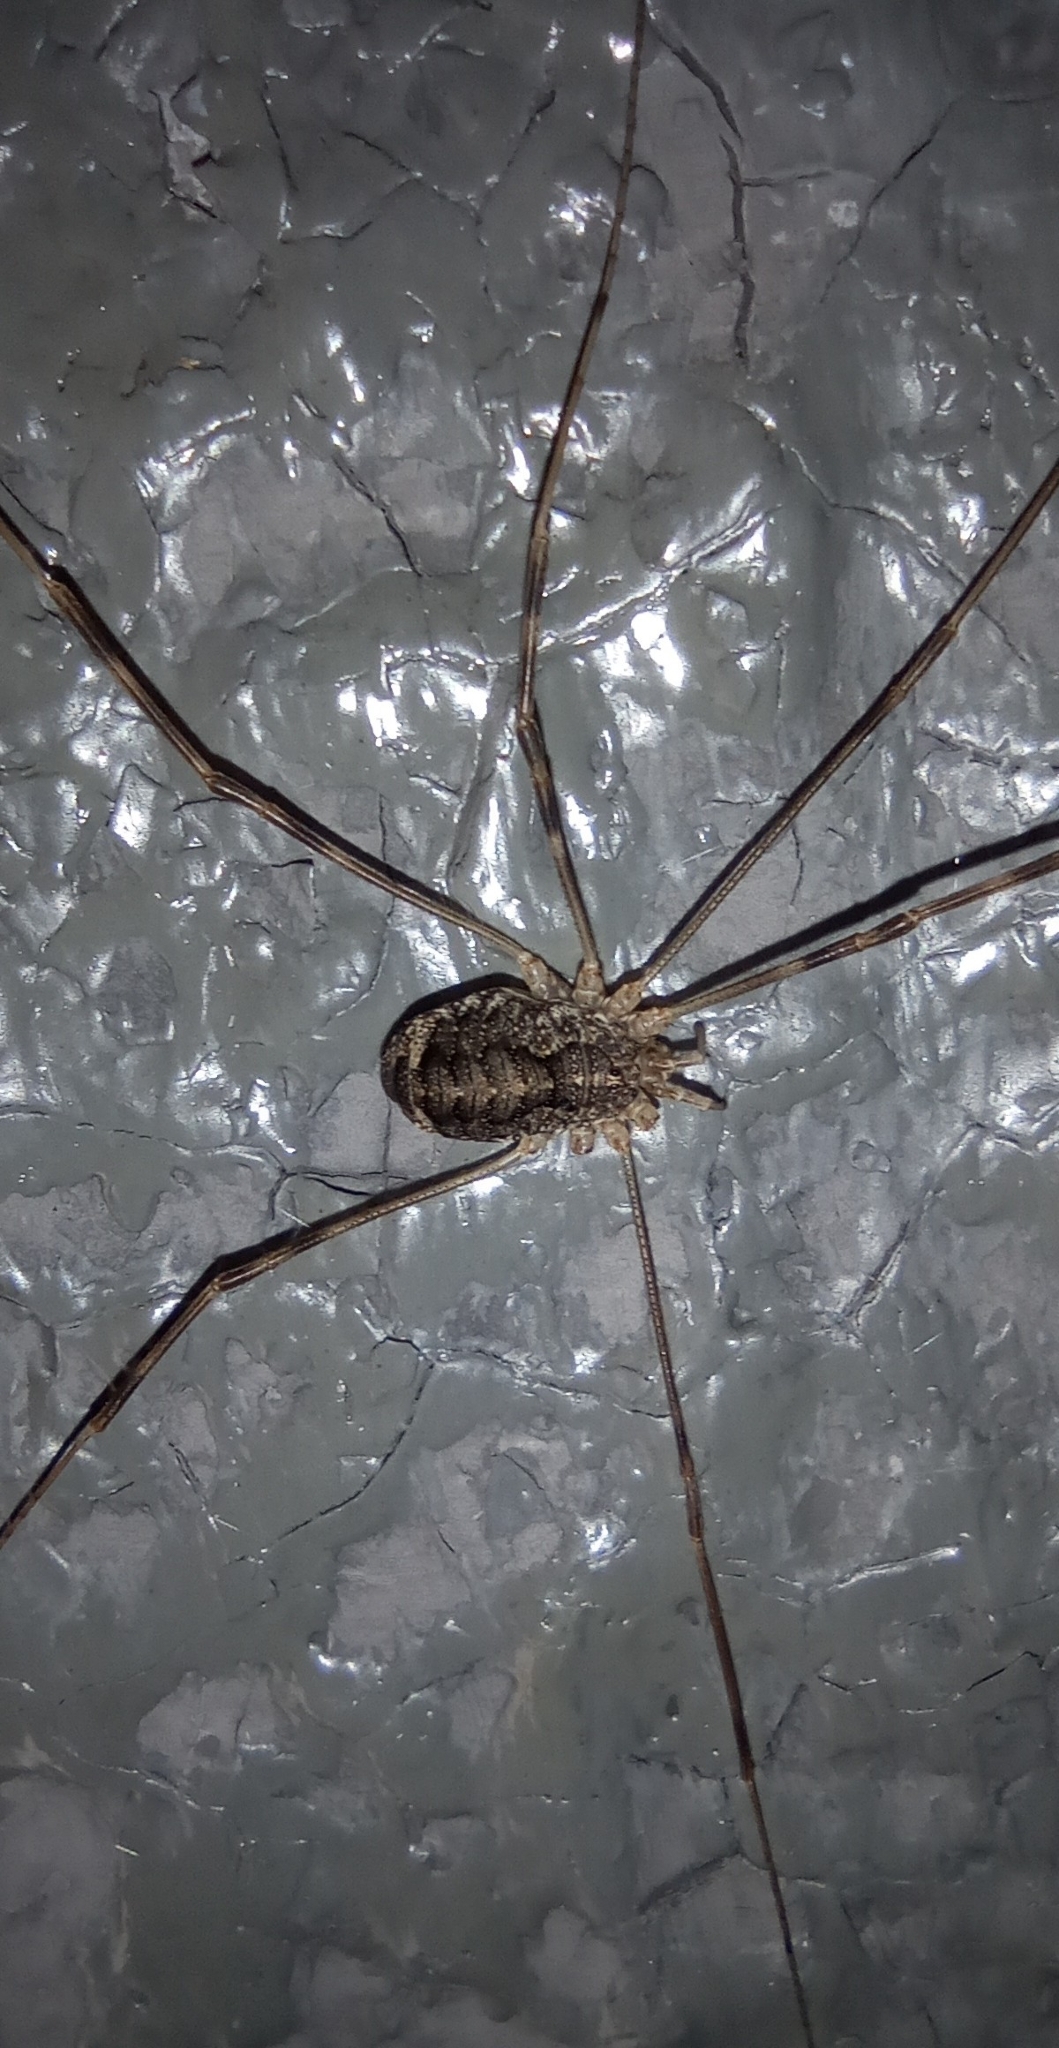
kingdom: Animalia
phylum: Arthropoda
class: Arachnida
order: Opiliones
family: Phalangiidae
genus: Opilio
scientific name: Opilio parietinus
